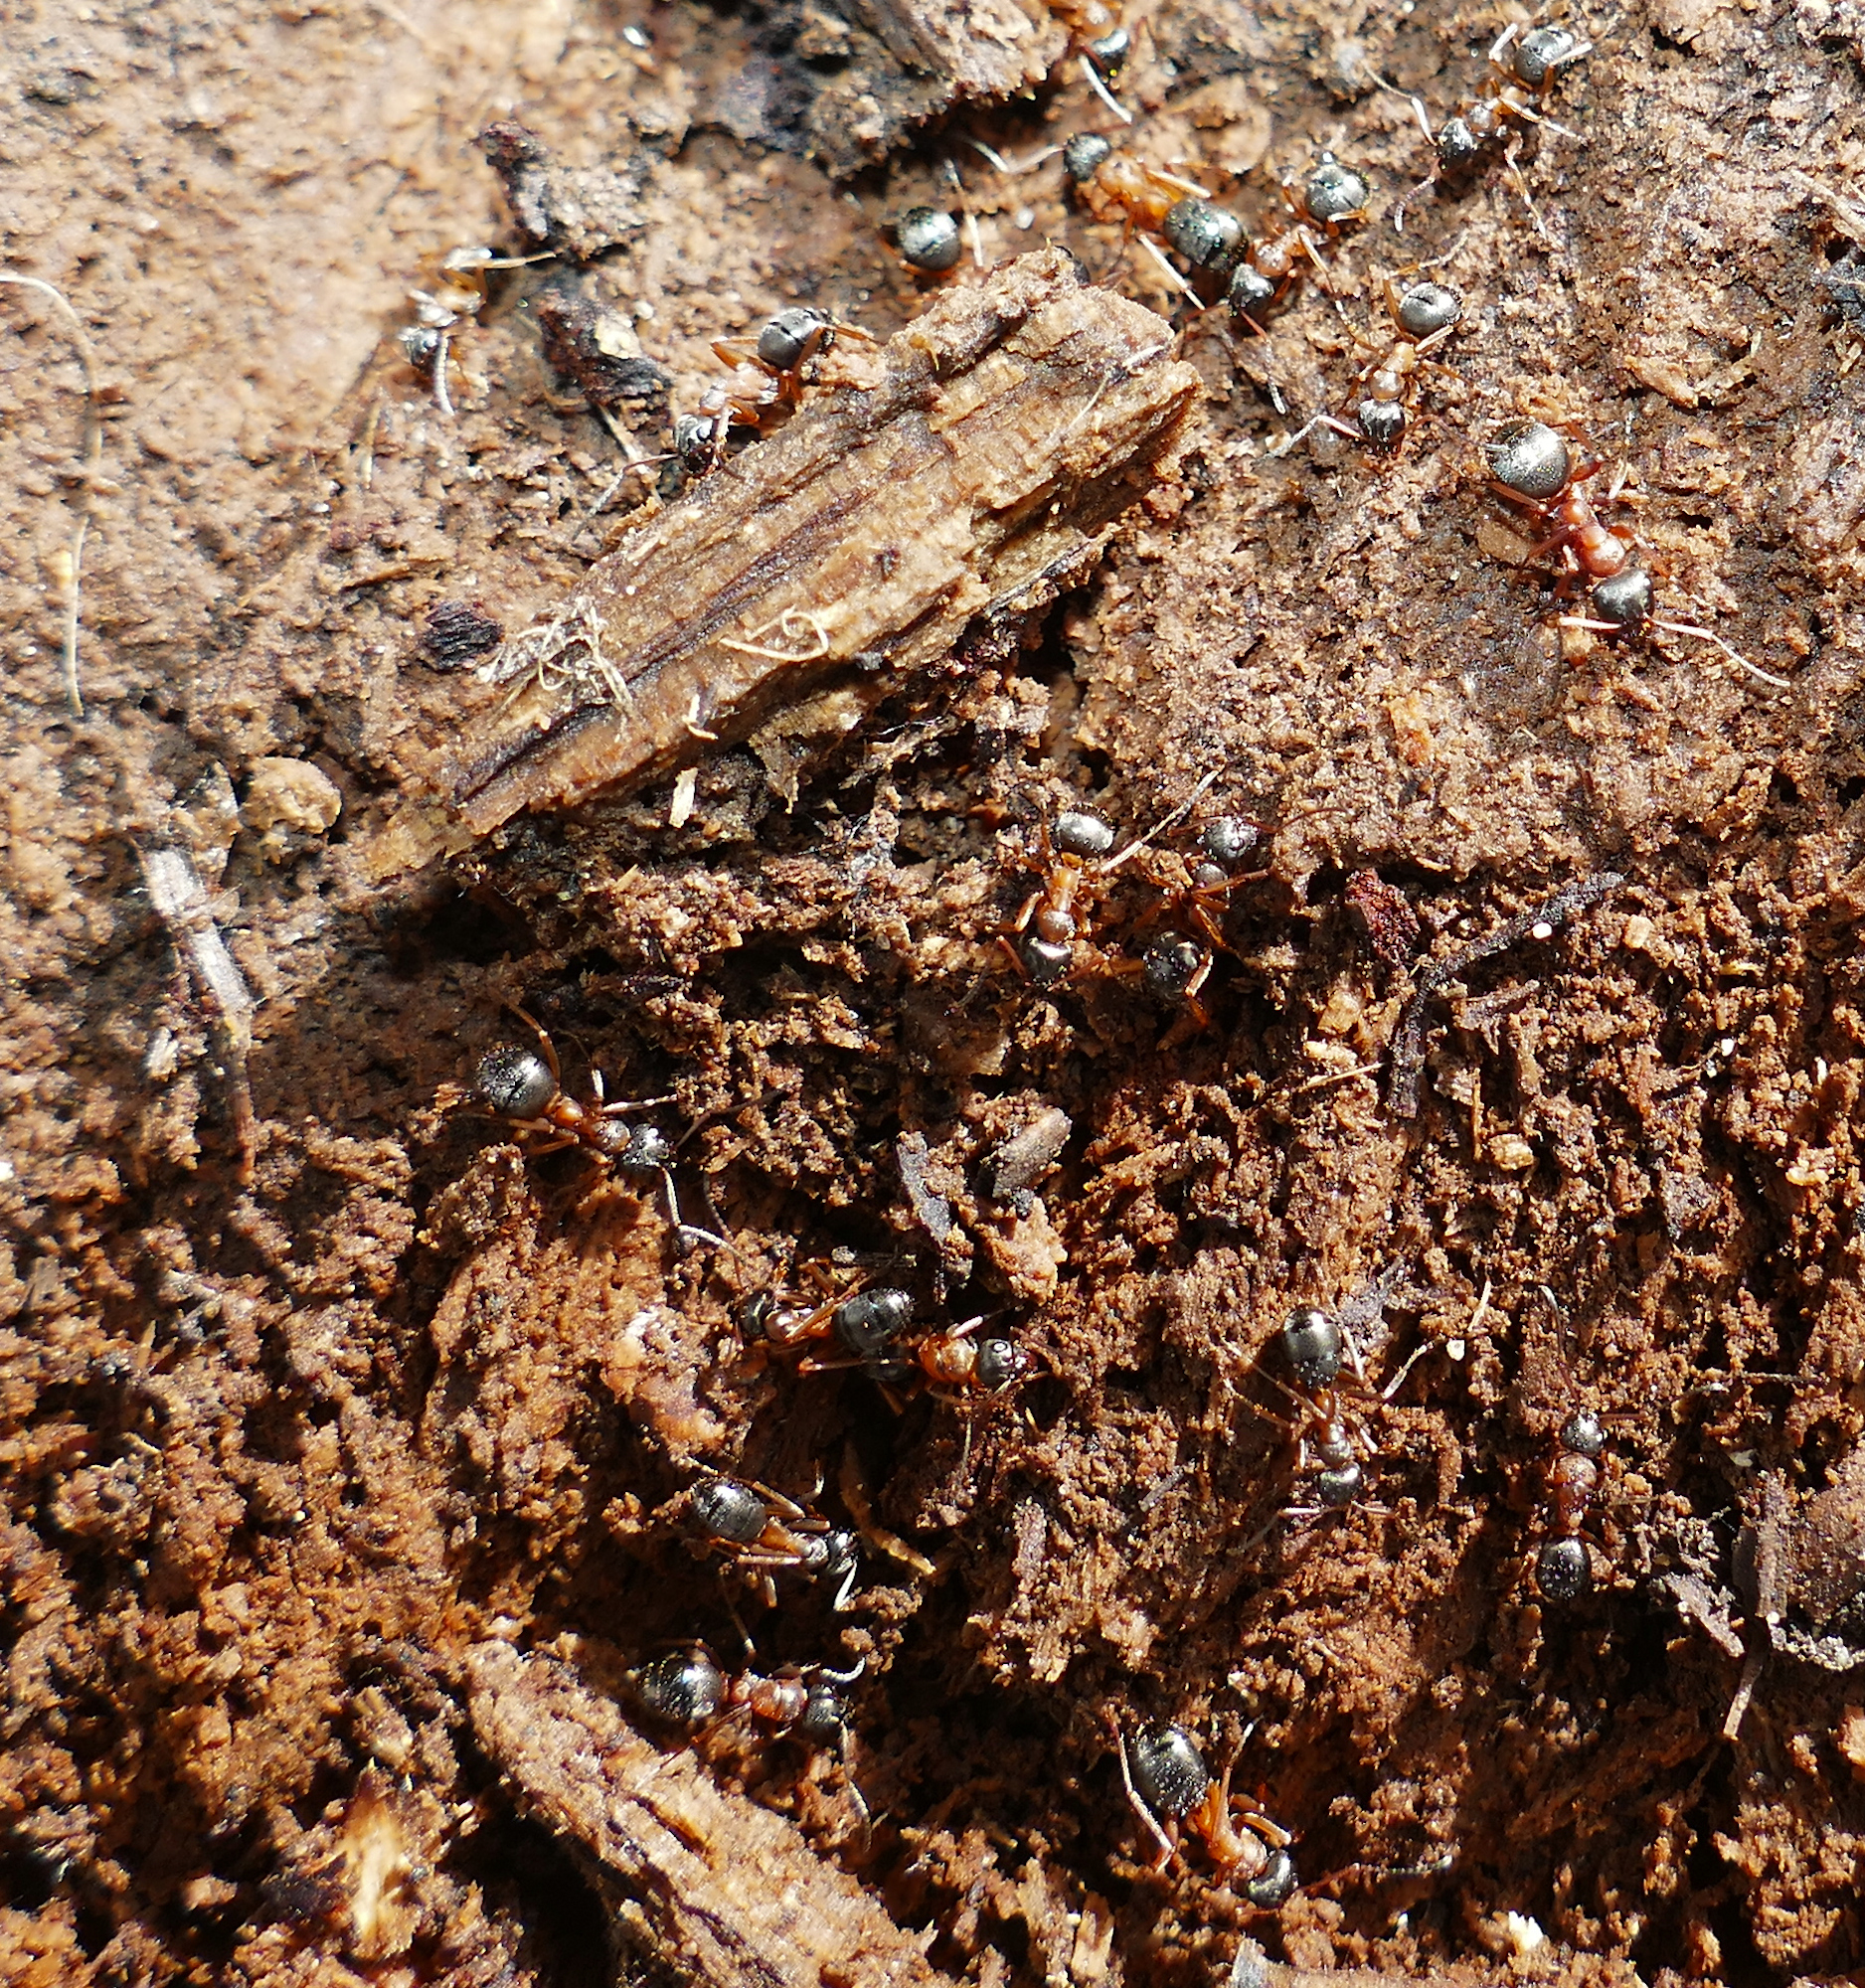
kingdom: Animalia
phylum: Arthropoda
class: Insecta
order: Hymenoptera
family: Formicidae
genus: Formica
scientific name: Formica neorufibarbis
